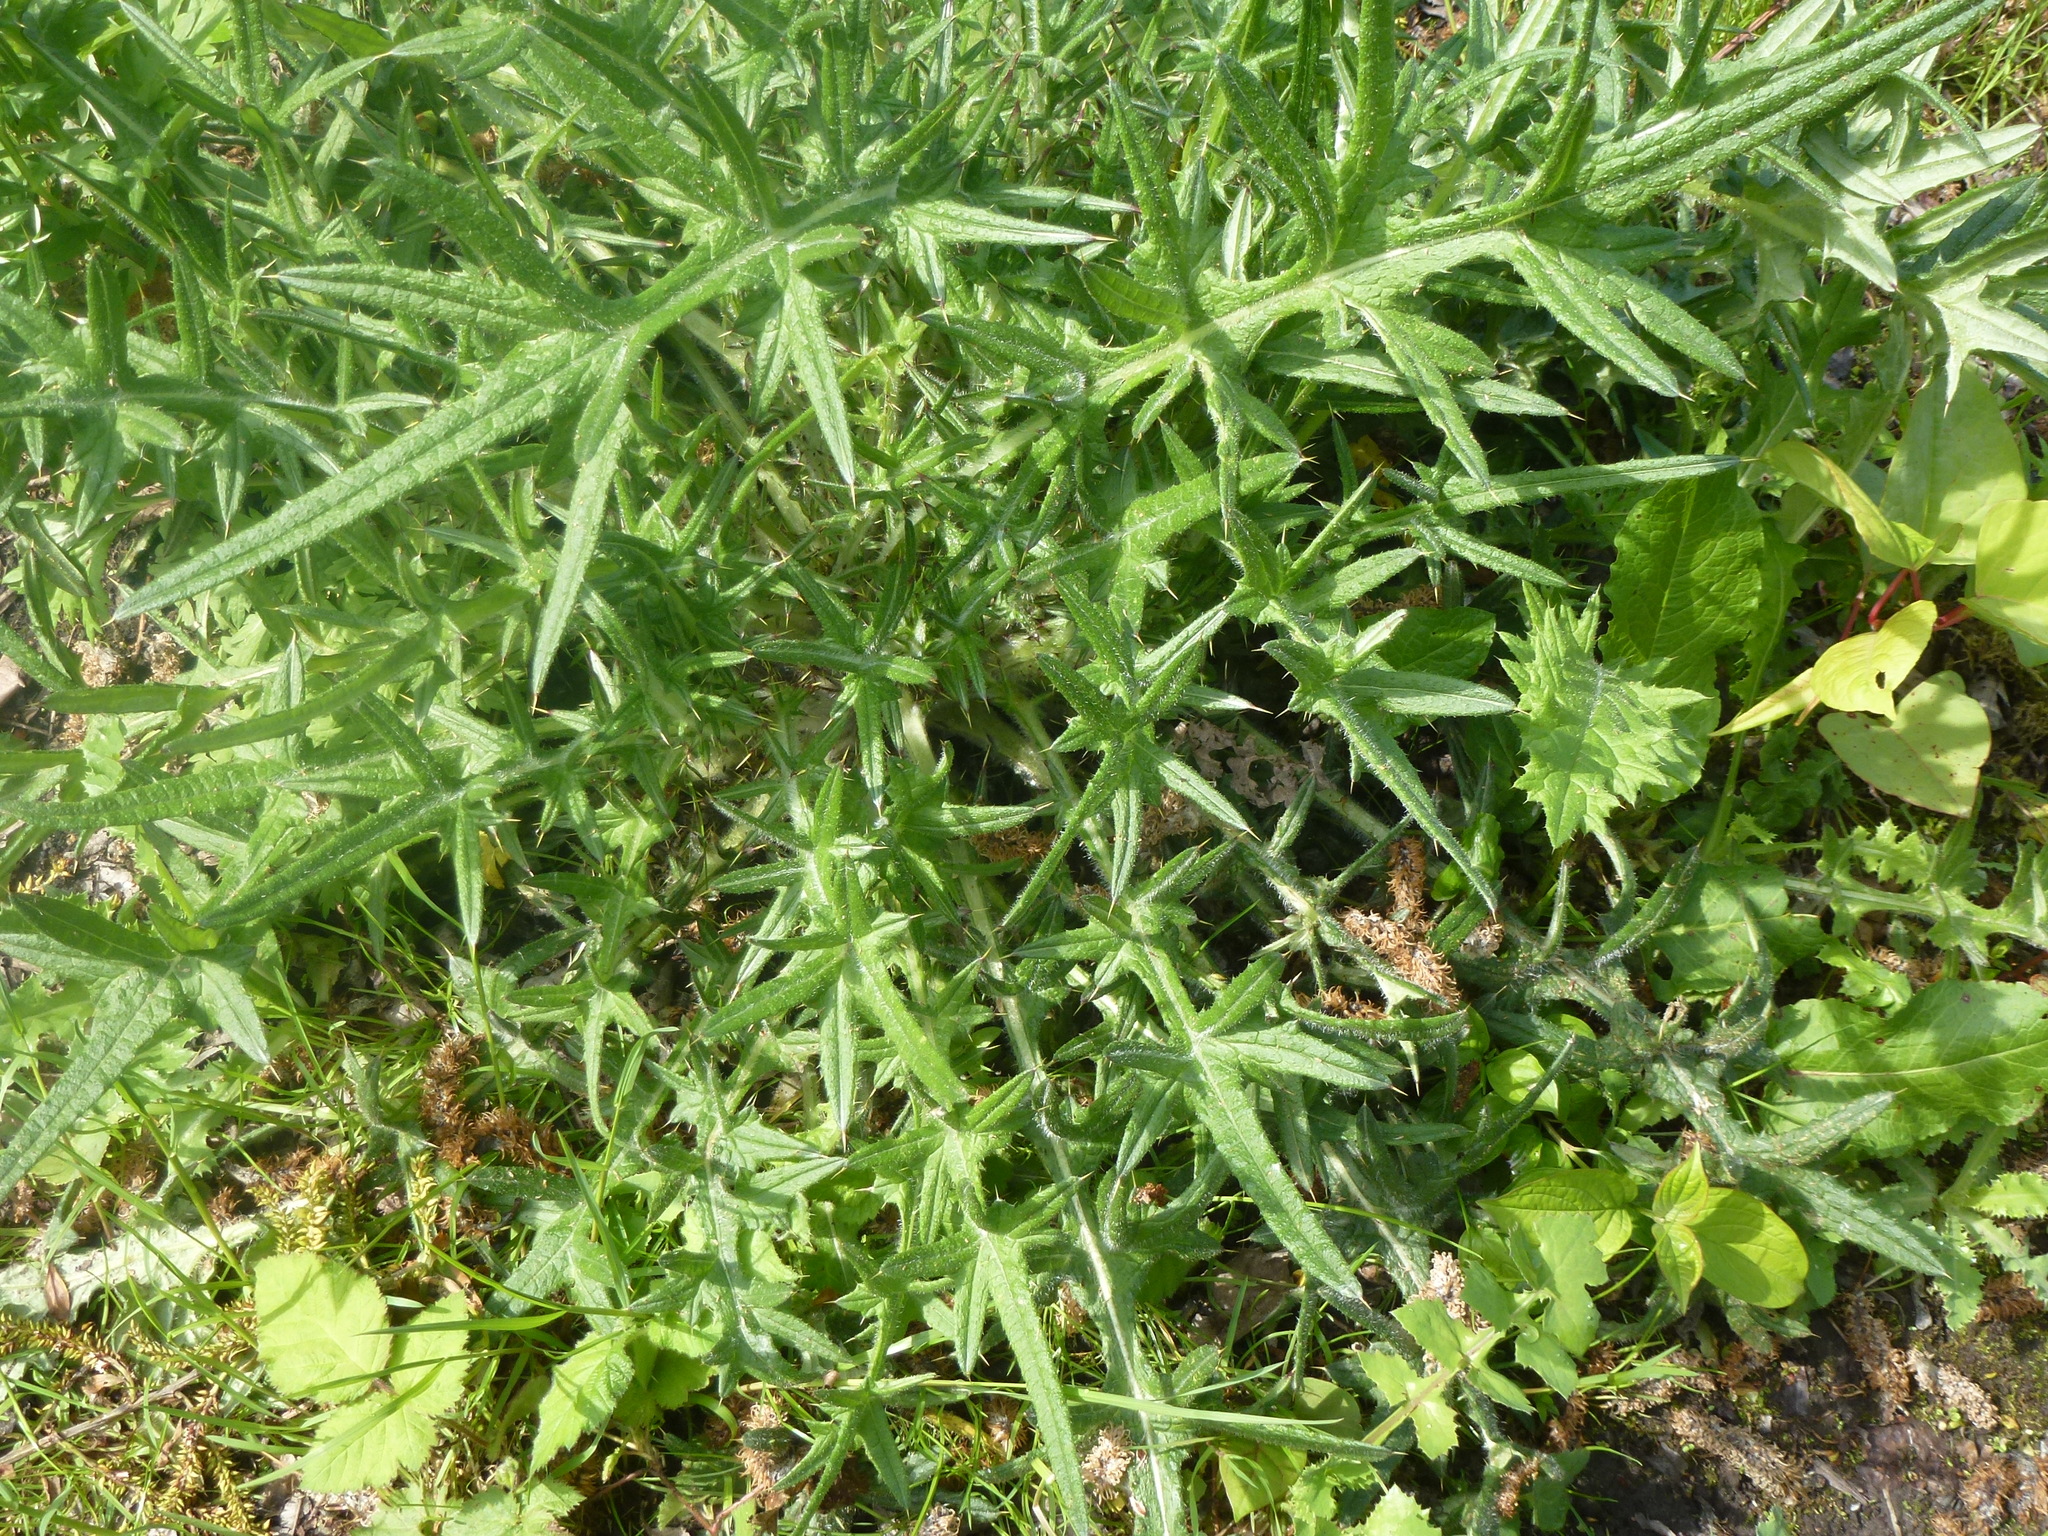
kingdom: Plantae
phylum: Tracheophyta
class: Magnoliopsida
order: Asterales
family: Asteraceae
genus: Cirsium
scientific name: Cirsium vulgare
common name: Bull thistle
